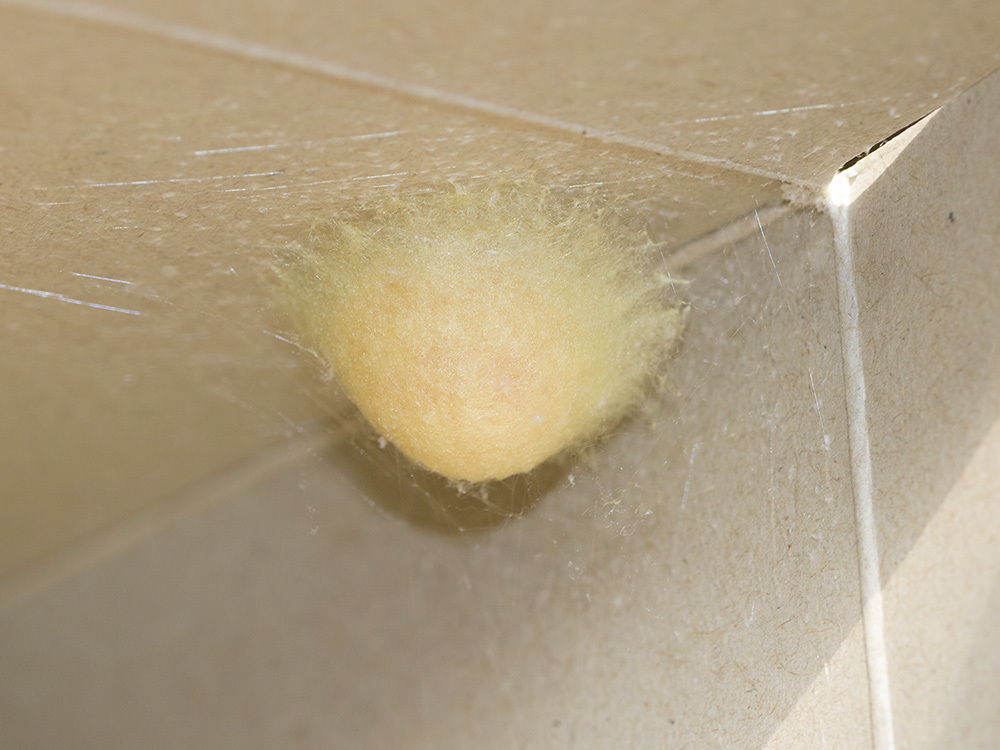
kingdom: Animalia
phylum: Arthropoda
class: Arachnida
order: Araneae
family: Araneidae
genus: Araneus
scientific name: Araneus diadematus
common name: Cross orbweaver
